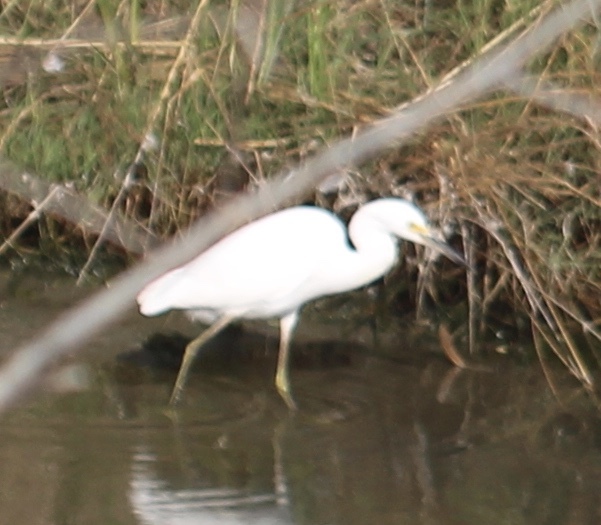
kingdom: Animalia
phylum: Chordata
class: Aves
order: Pelecaniformes
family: Ardeidae
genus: Egretta
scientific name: Egretta thula
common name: Snowy egret
